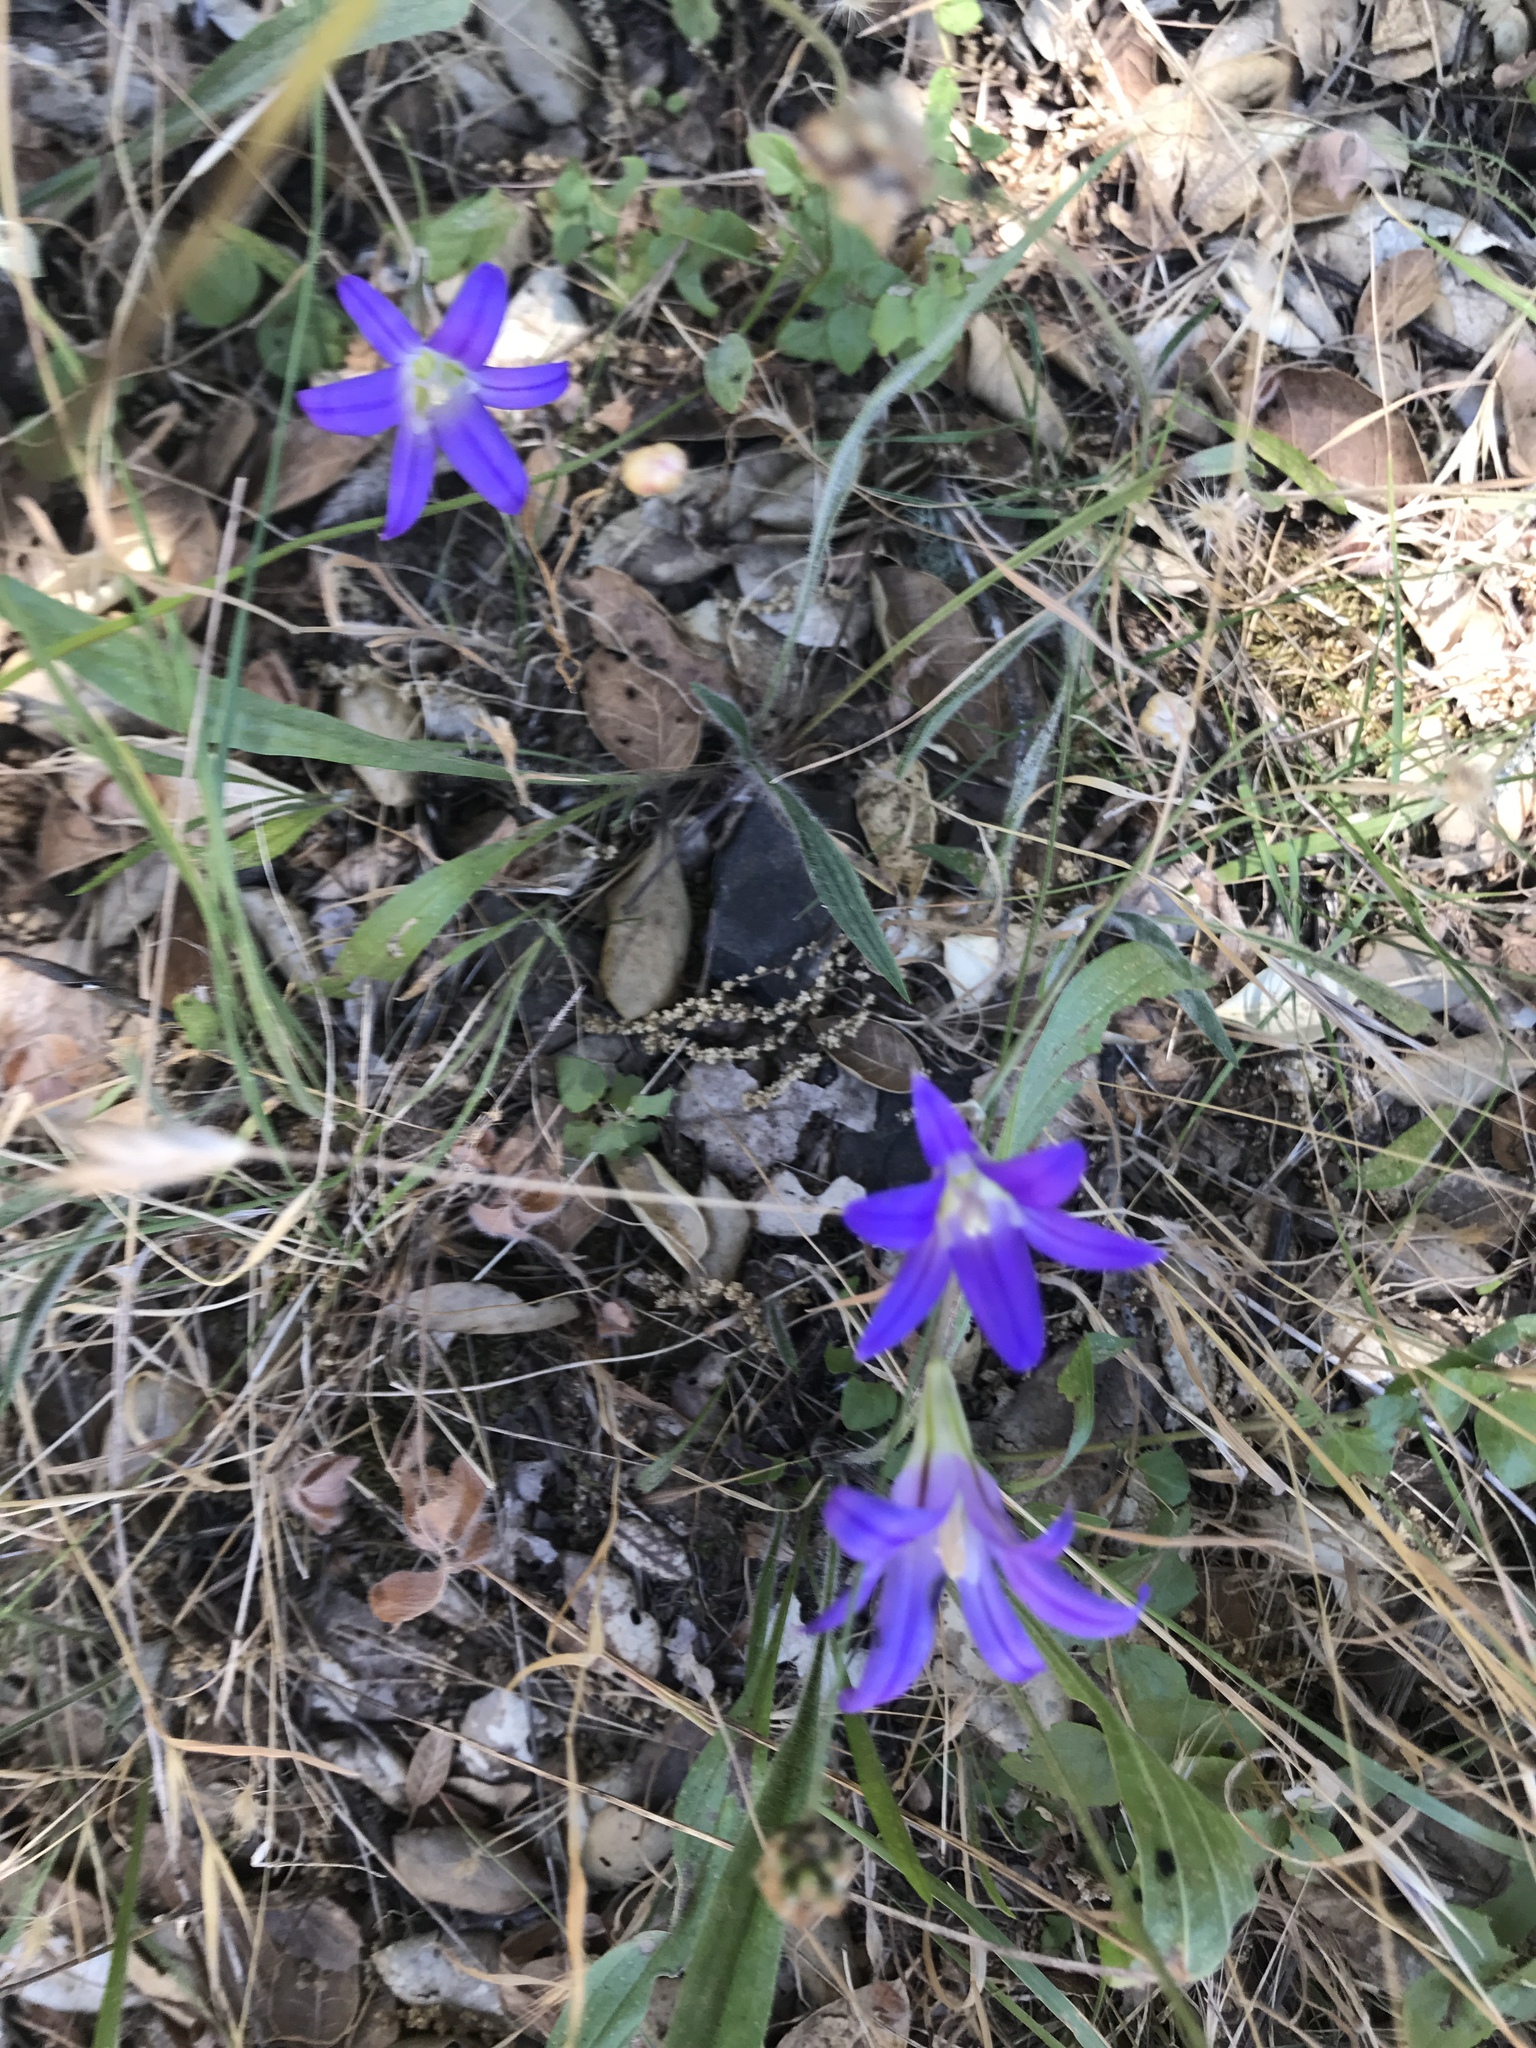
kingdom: Plantae
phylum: Tracheophyta
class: Liliopsida
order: Asparagales
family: Asparagaceae
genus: Brodiaea
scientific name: Brodiaea elegans
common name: Elegant cluster-lily
